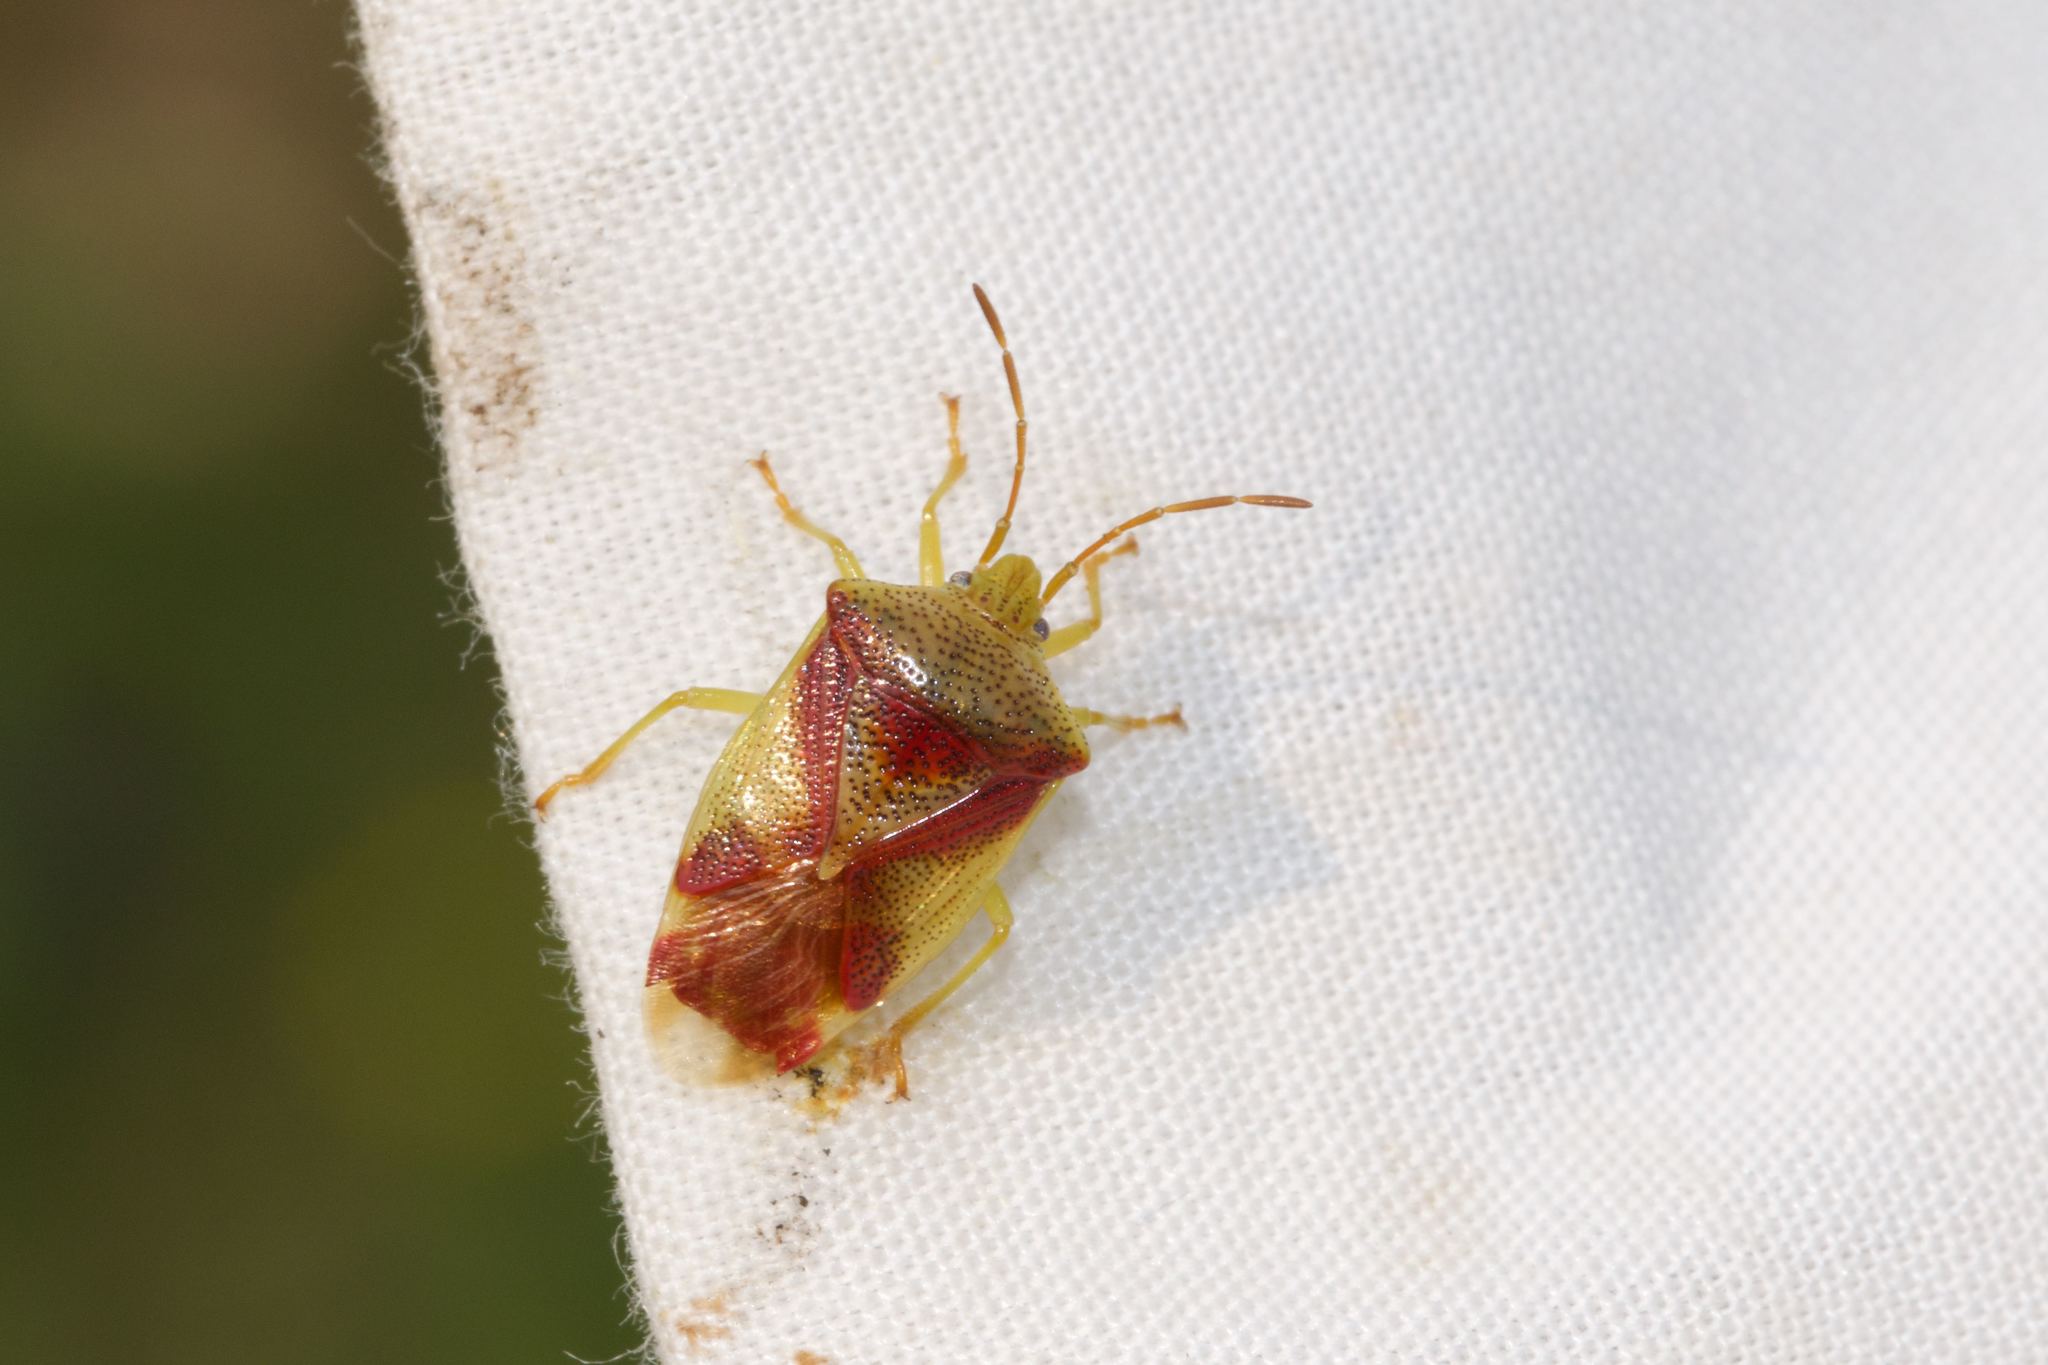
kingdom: Animalia
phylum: Arthropoda
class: Insecta
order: Hemiptera
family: Acanthosomatidae
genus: Elasmostethus
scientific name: Elasmostethus cruciatus
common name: Red-cross shield bug
